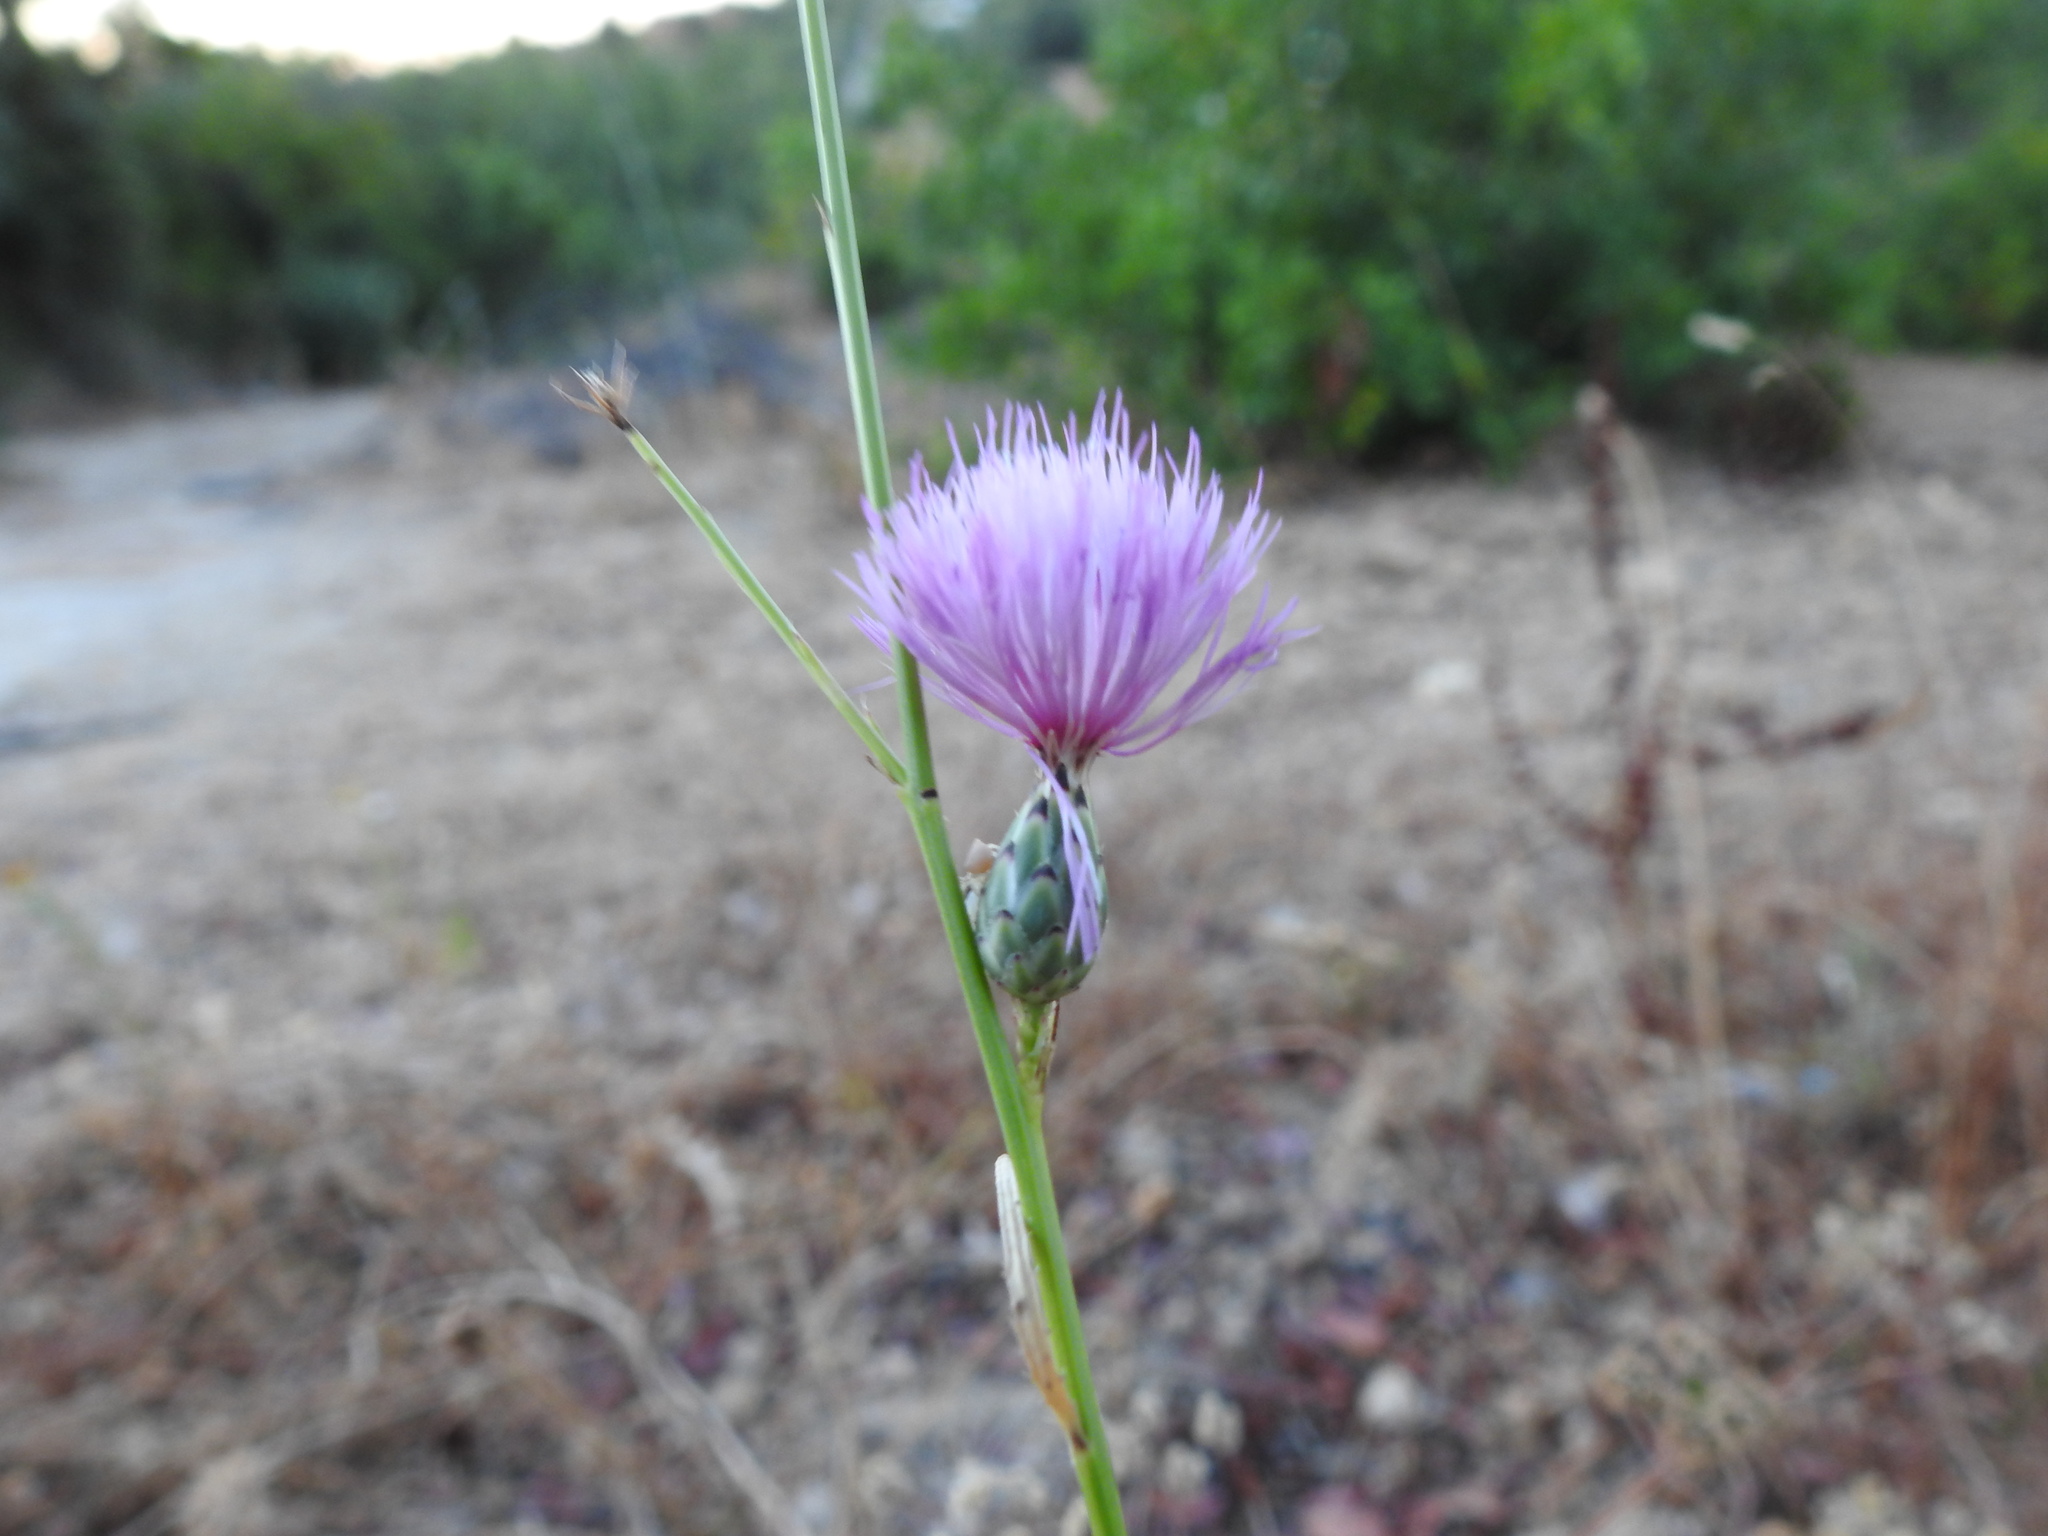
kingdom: Plantae
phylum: Tracheophyta
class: Magnoliopsida
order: Asterales
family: Asteraceae
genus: Mantisalca
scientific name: Mantisalca salmantica
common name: Dagger flower
